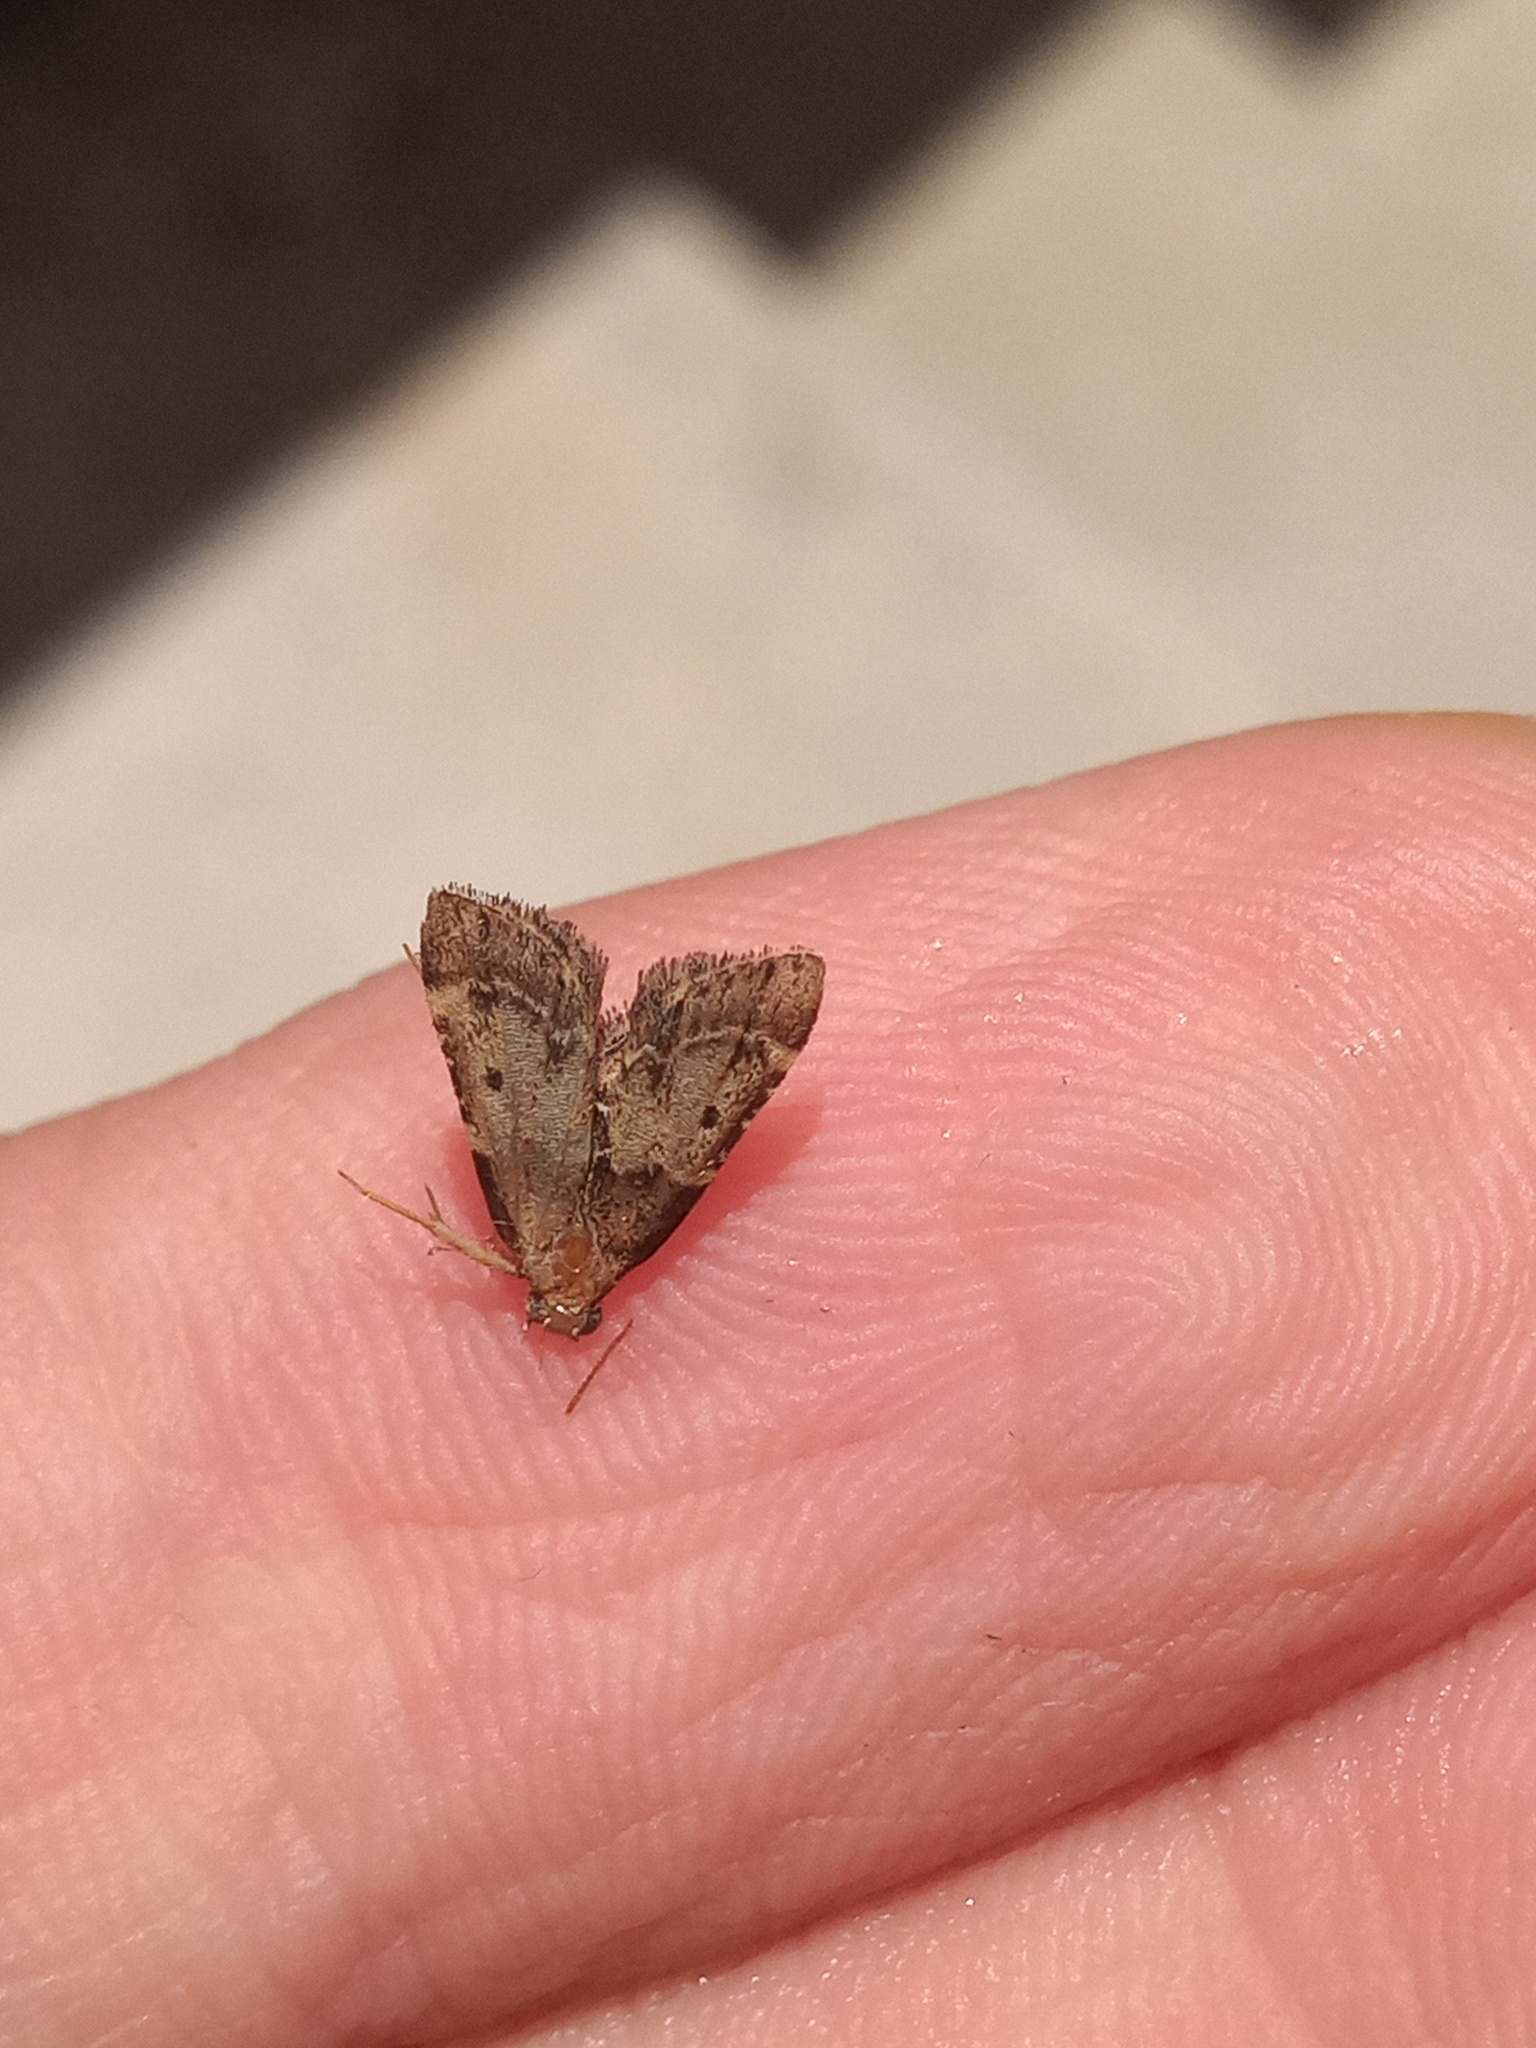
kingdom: Animalia
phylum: Arthropoda
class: Insecta
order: Lepidoptera
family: Pyralidae
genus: Pyralis
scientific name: Pyralis manihotalis
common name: Moth
